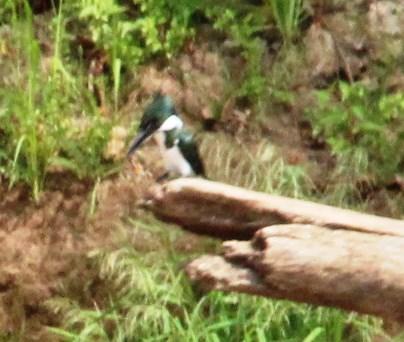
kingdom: Animalia
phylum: Chordata
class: Aves
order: Coraciiformes
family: Alcedinidae
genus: Chloroceryle
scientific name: Chloroceryle amazona
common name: Amazon kingfisher
